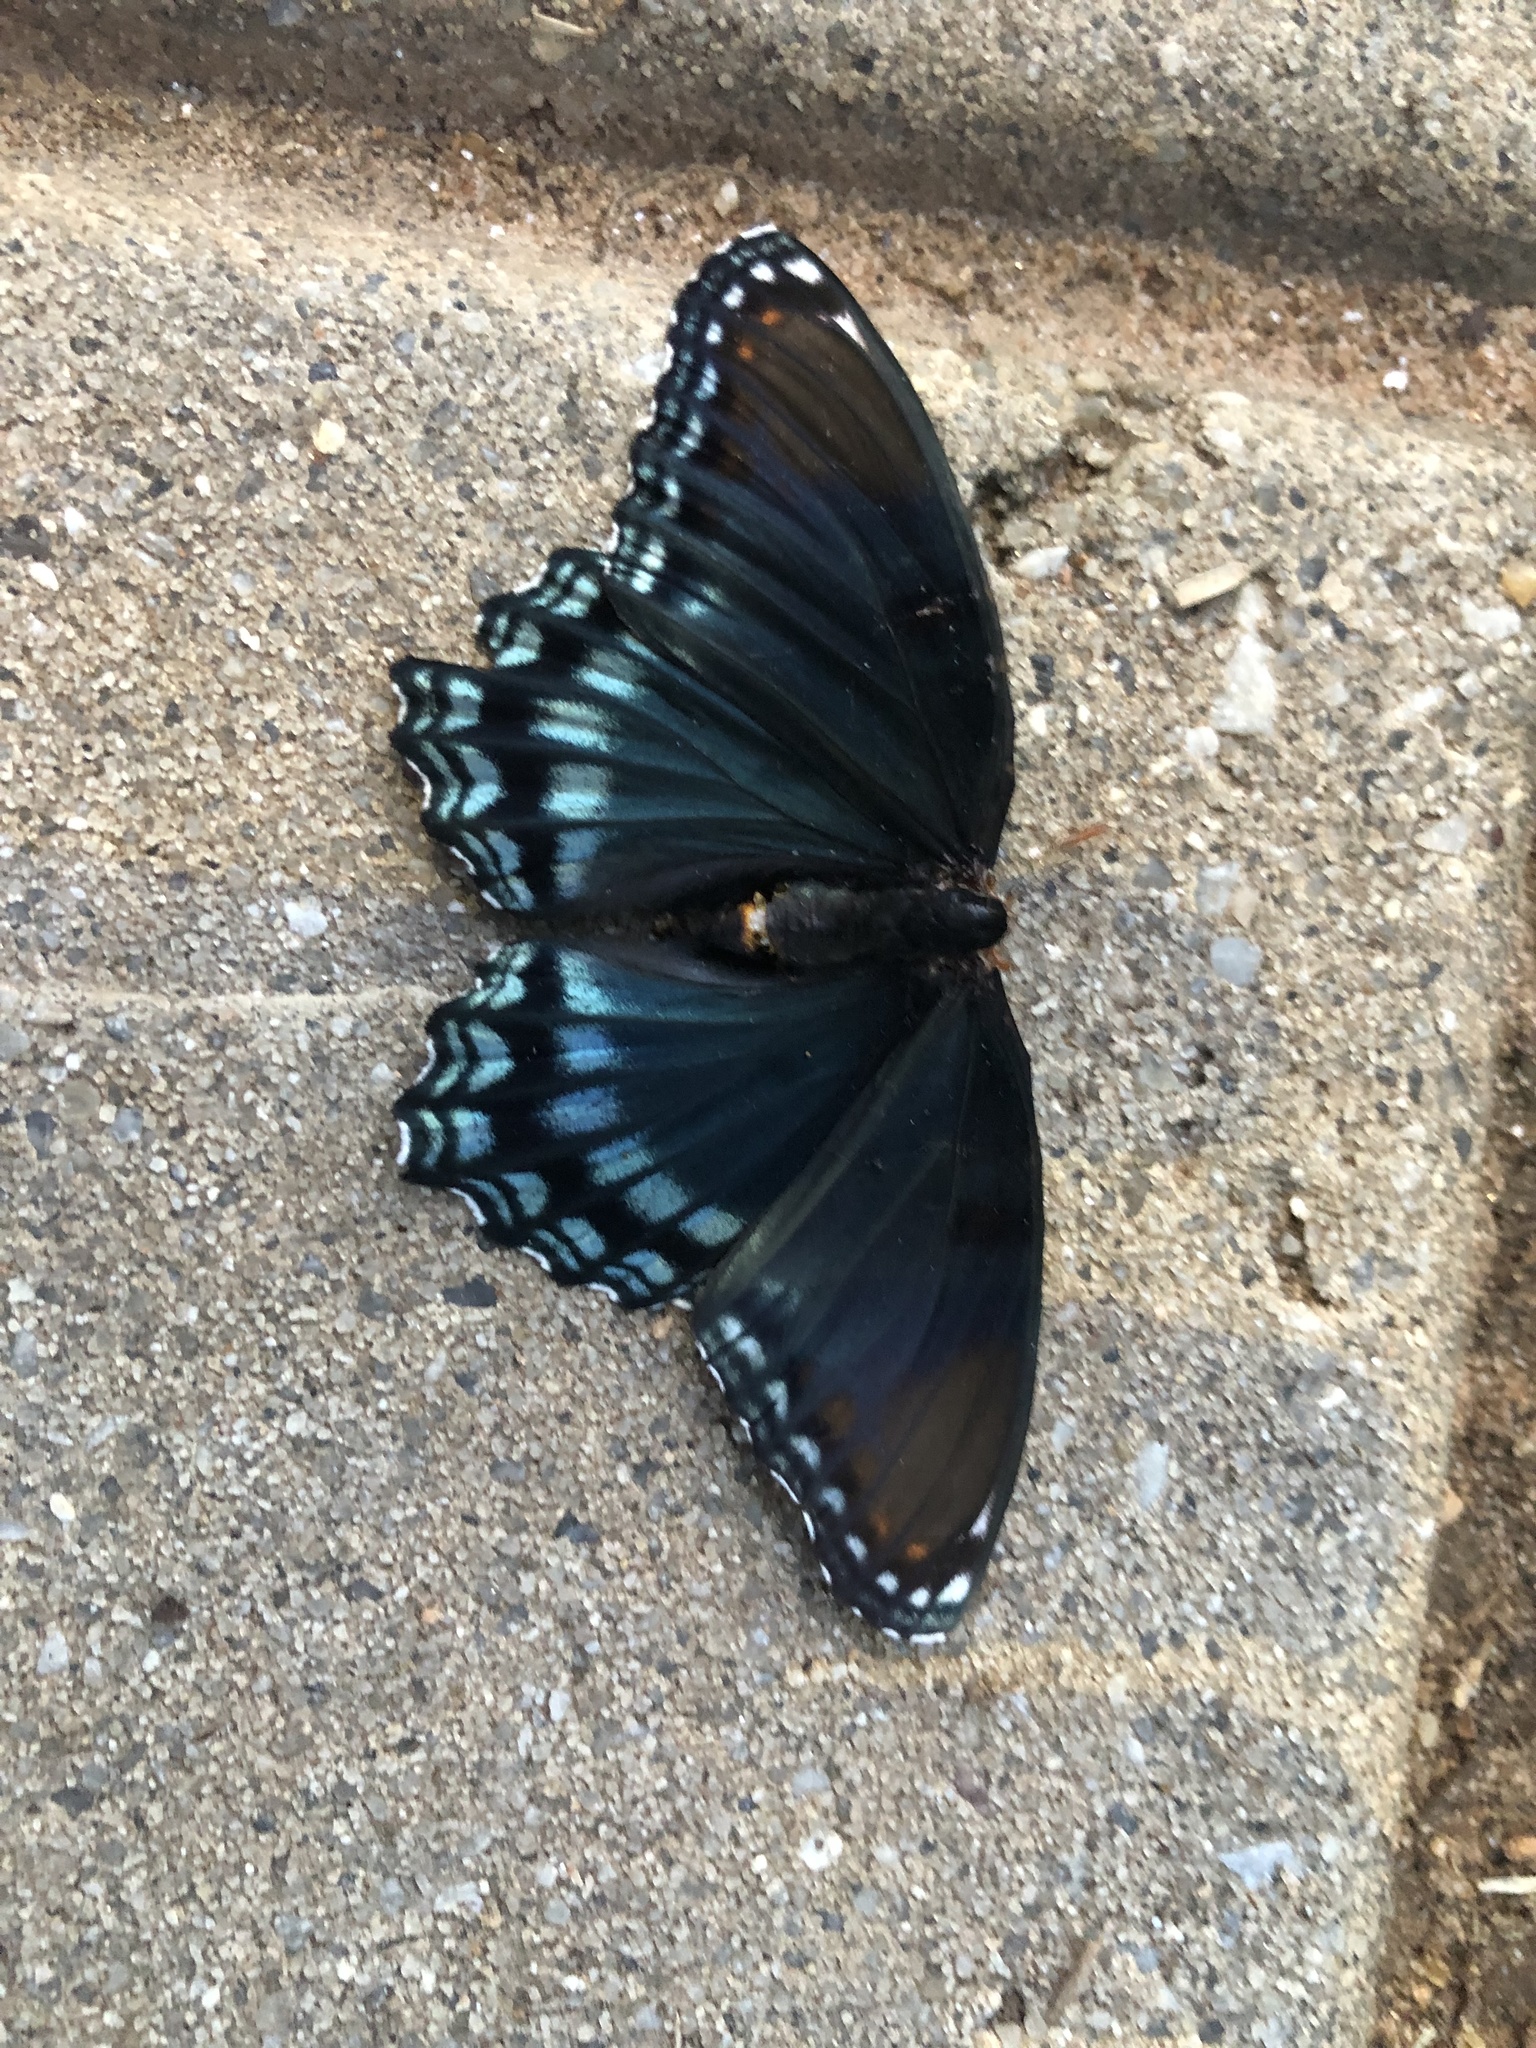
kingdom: Animalia
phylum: Arthropoda
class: Insecta
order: Lepidoptera
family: Nymphalidae
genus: Limenitis
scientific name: Limenitis astyanax
